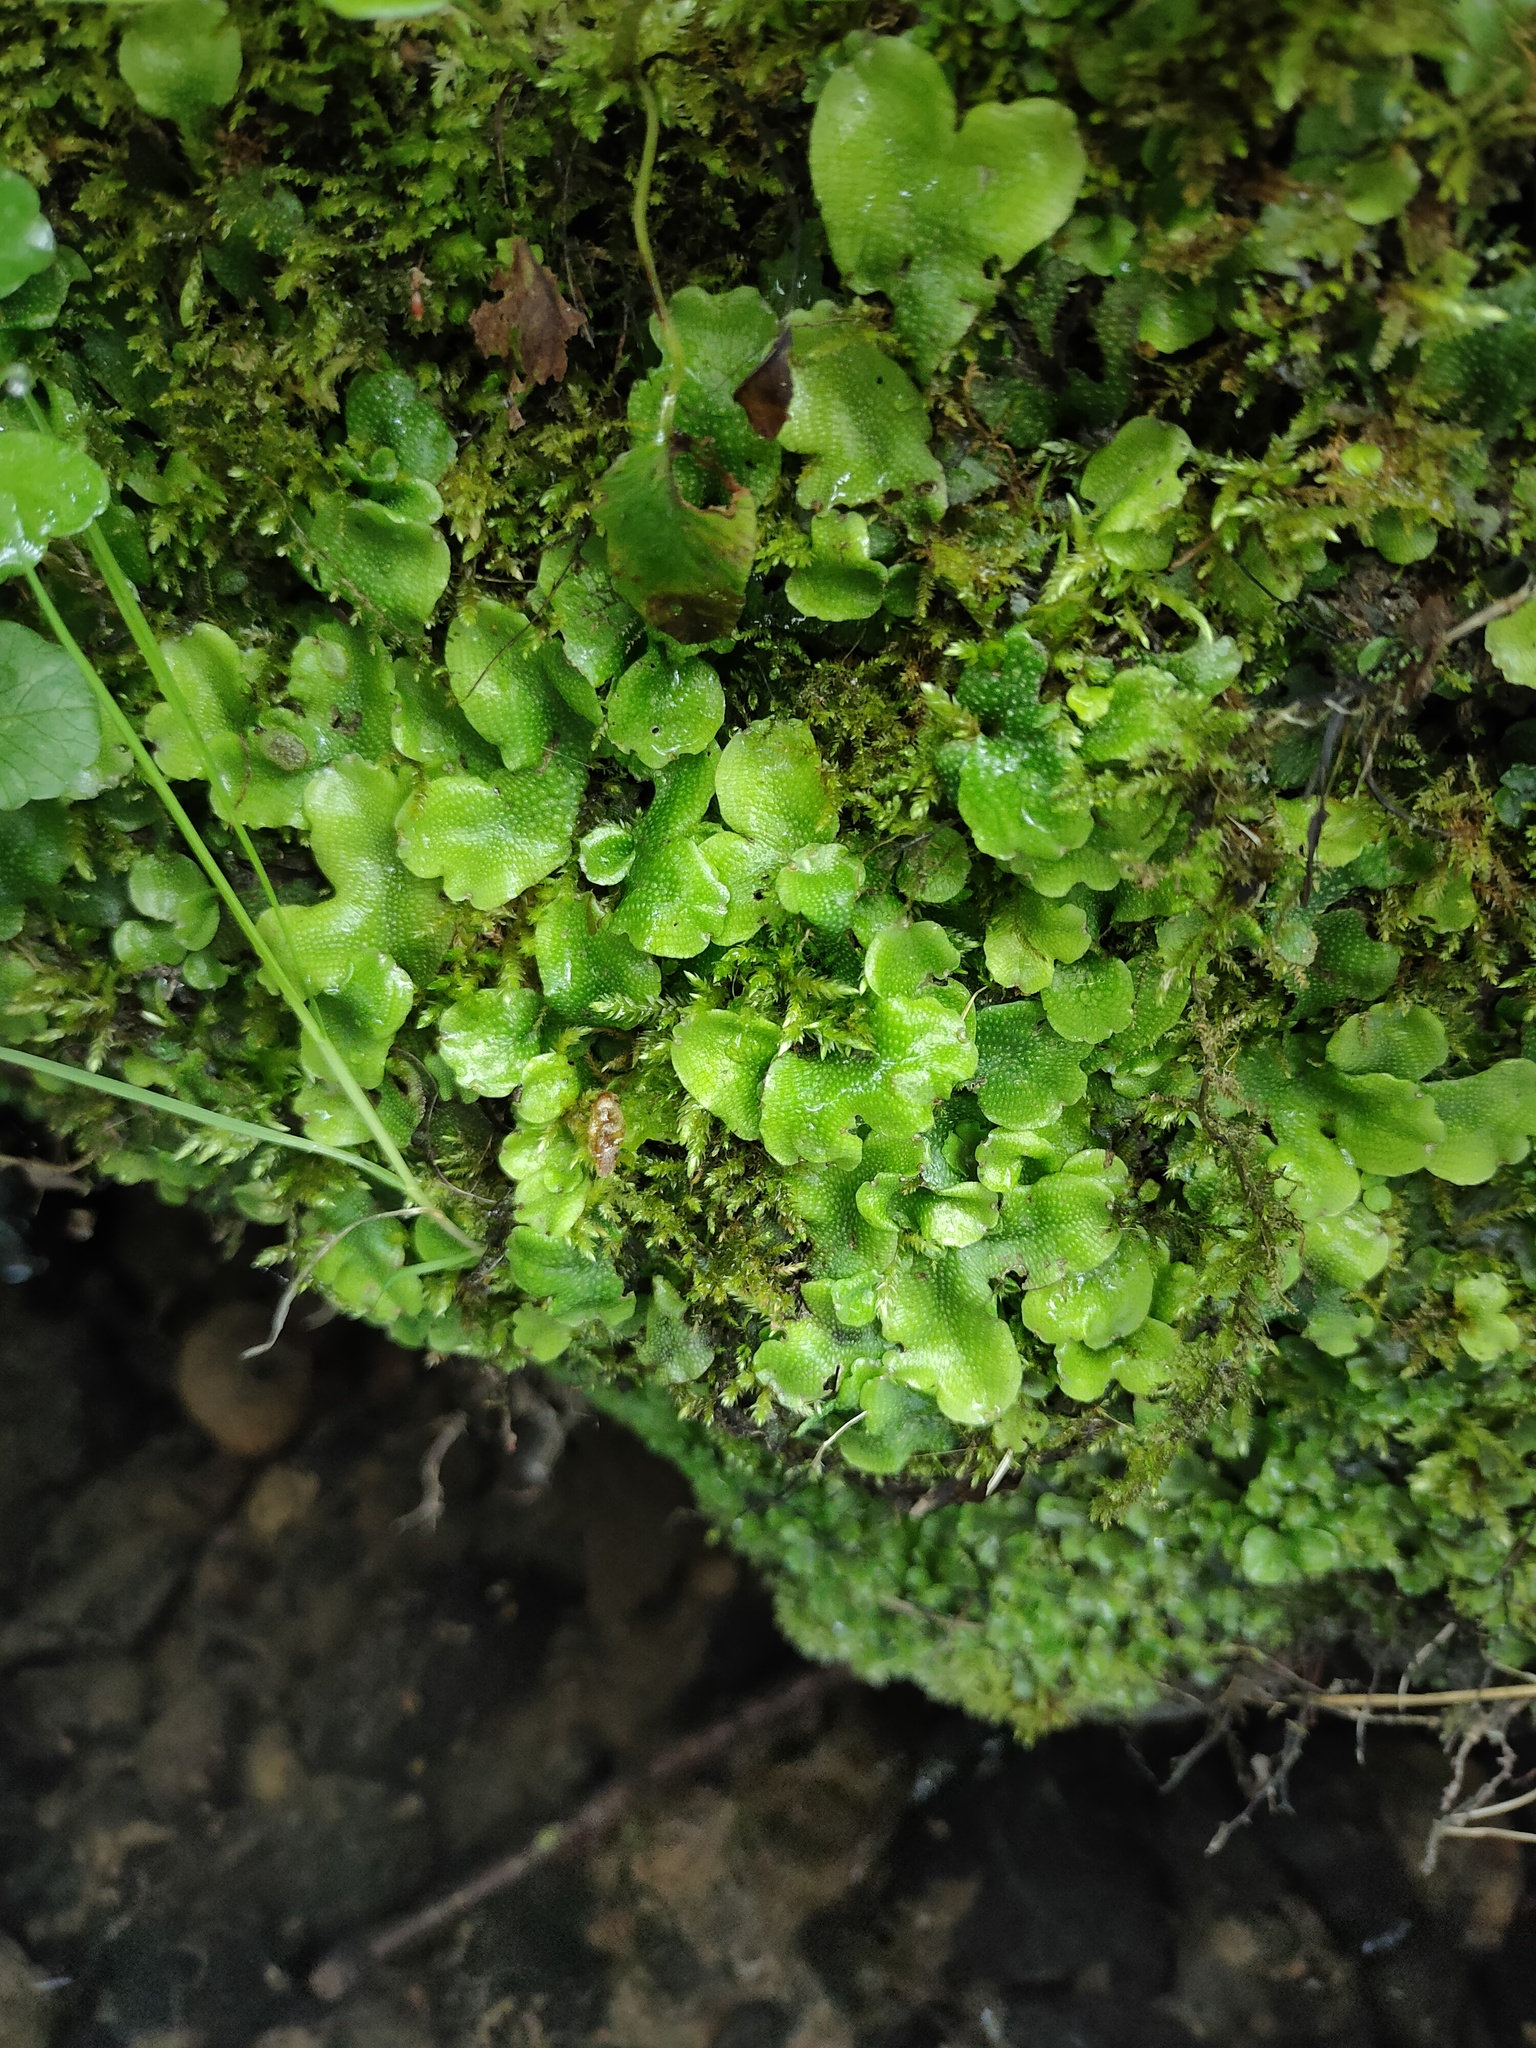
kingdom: Plantae
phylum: Marchantiophyta
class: Marchantiopsida
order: Marchantiales
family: Conocephalaceae
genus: Conocephalum
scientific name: Conocephalum conicum
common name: Great scented liverwort
